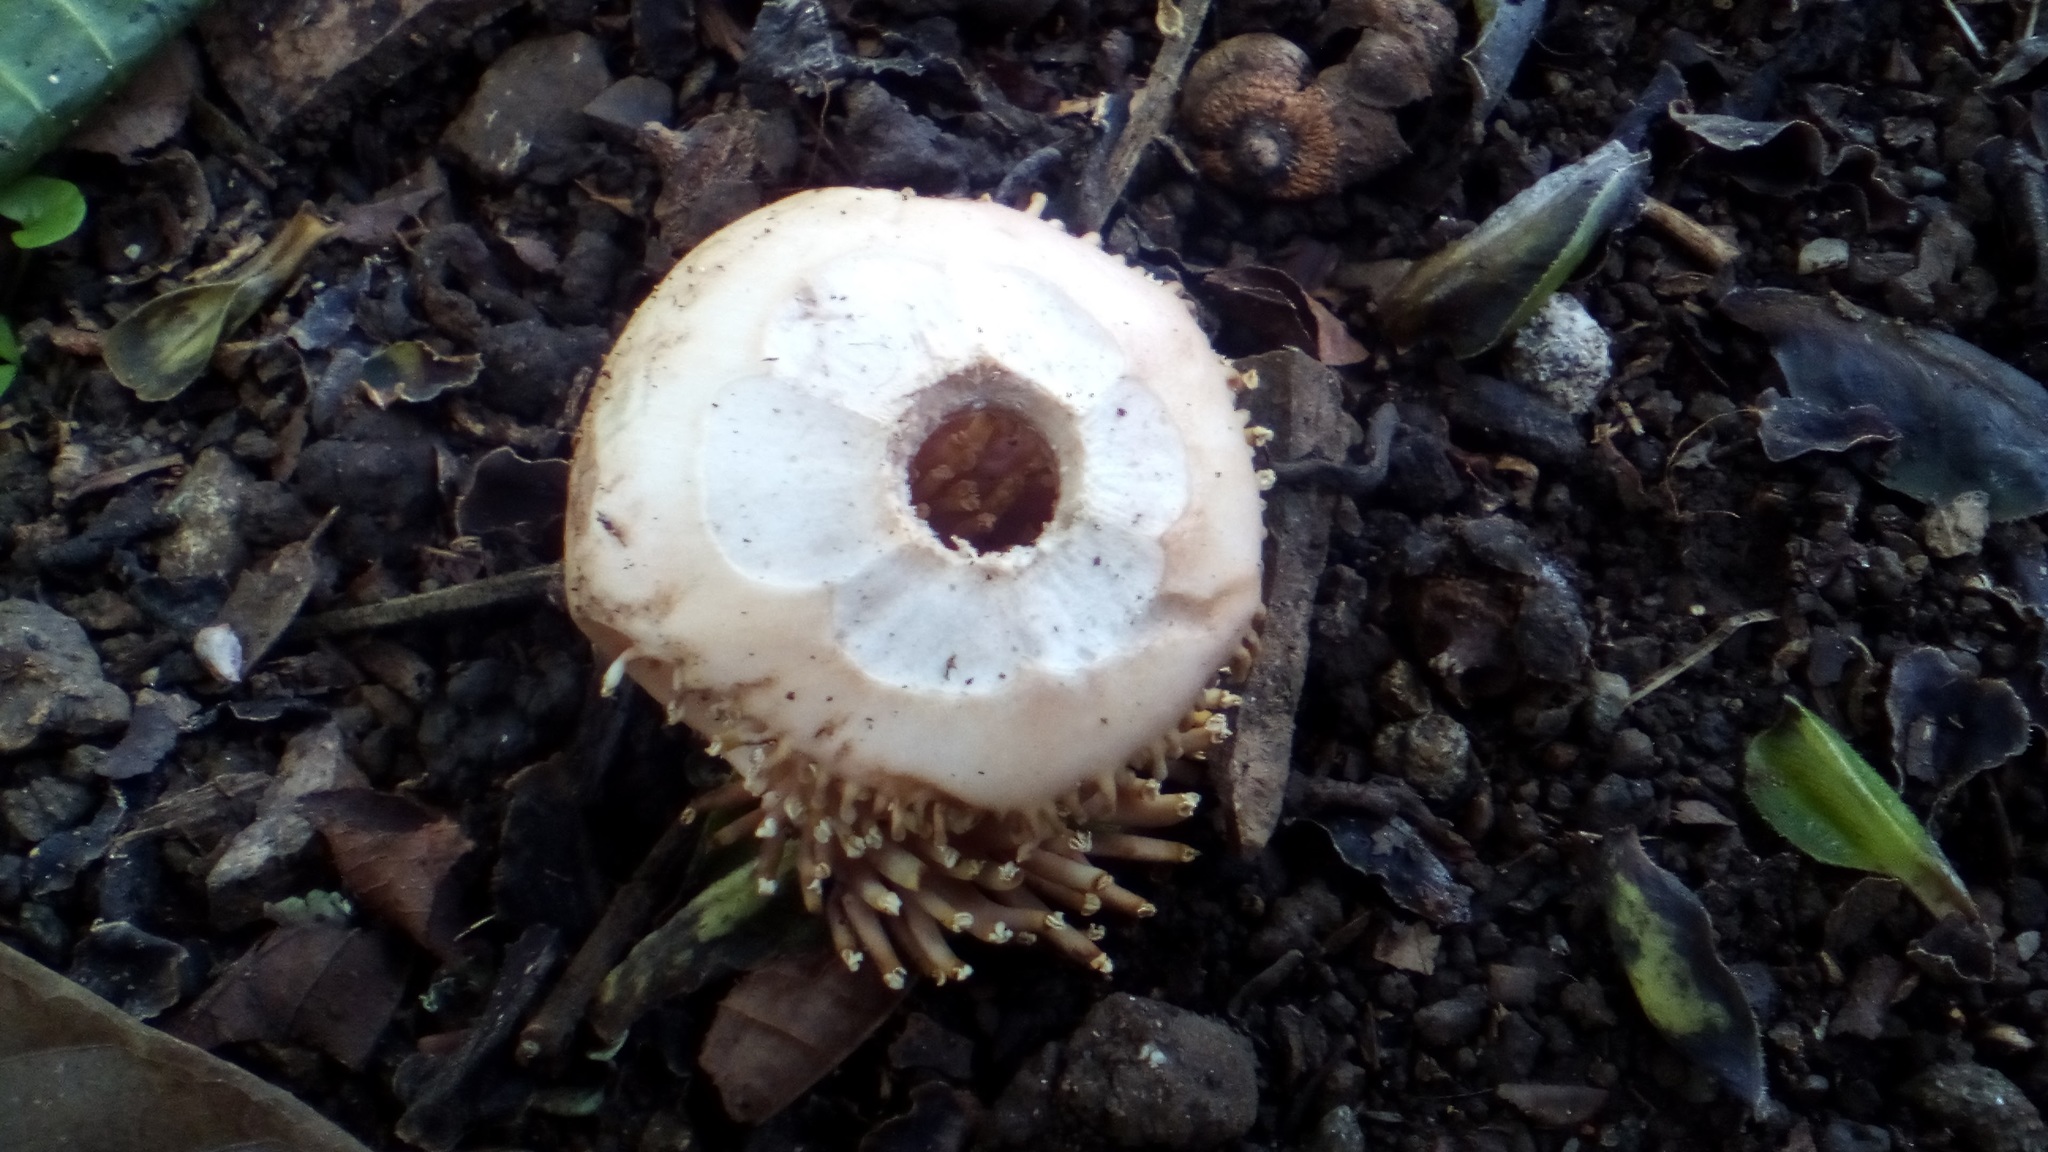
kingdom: Plantae
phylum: Tracheophyta
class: Magnoliopsida
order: Ericales
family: Lecythidaceae
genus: Couroupita
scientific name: Couroupita guianensis
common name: Cannonball tree
